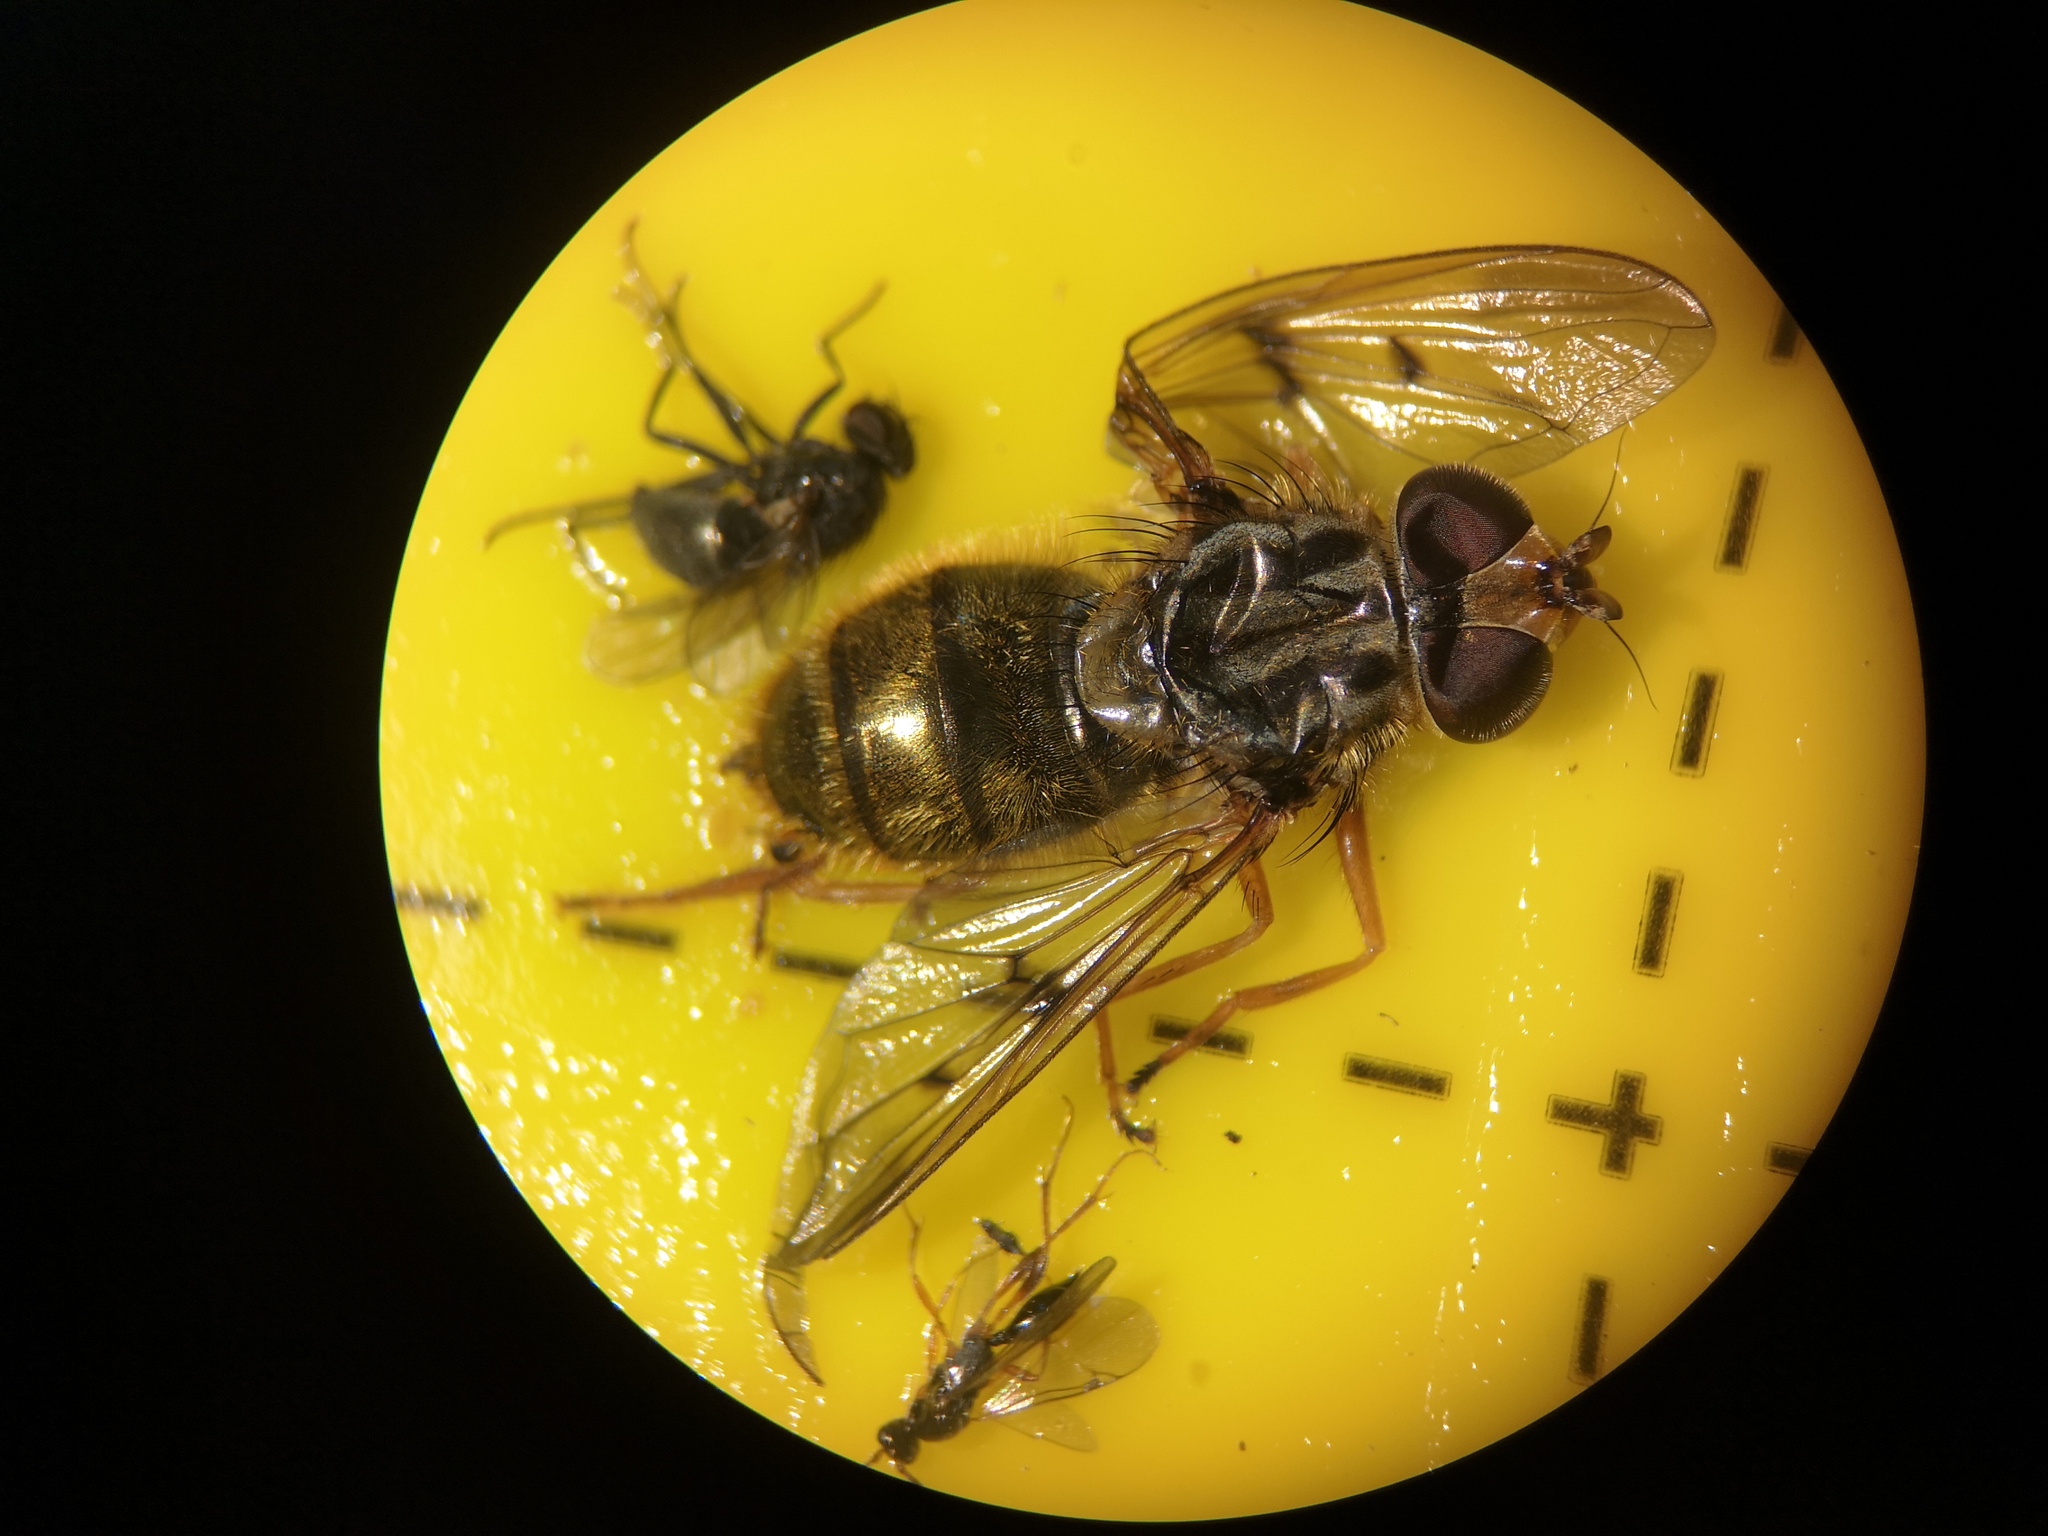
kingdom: Animalia
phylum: Arthropoda
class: Insecta
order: Diptera
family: Syrphidae
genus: Ferdinandea
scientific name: Ferdinandea cuprea
